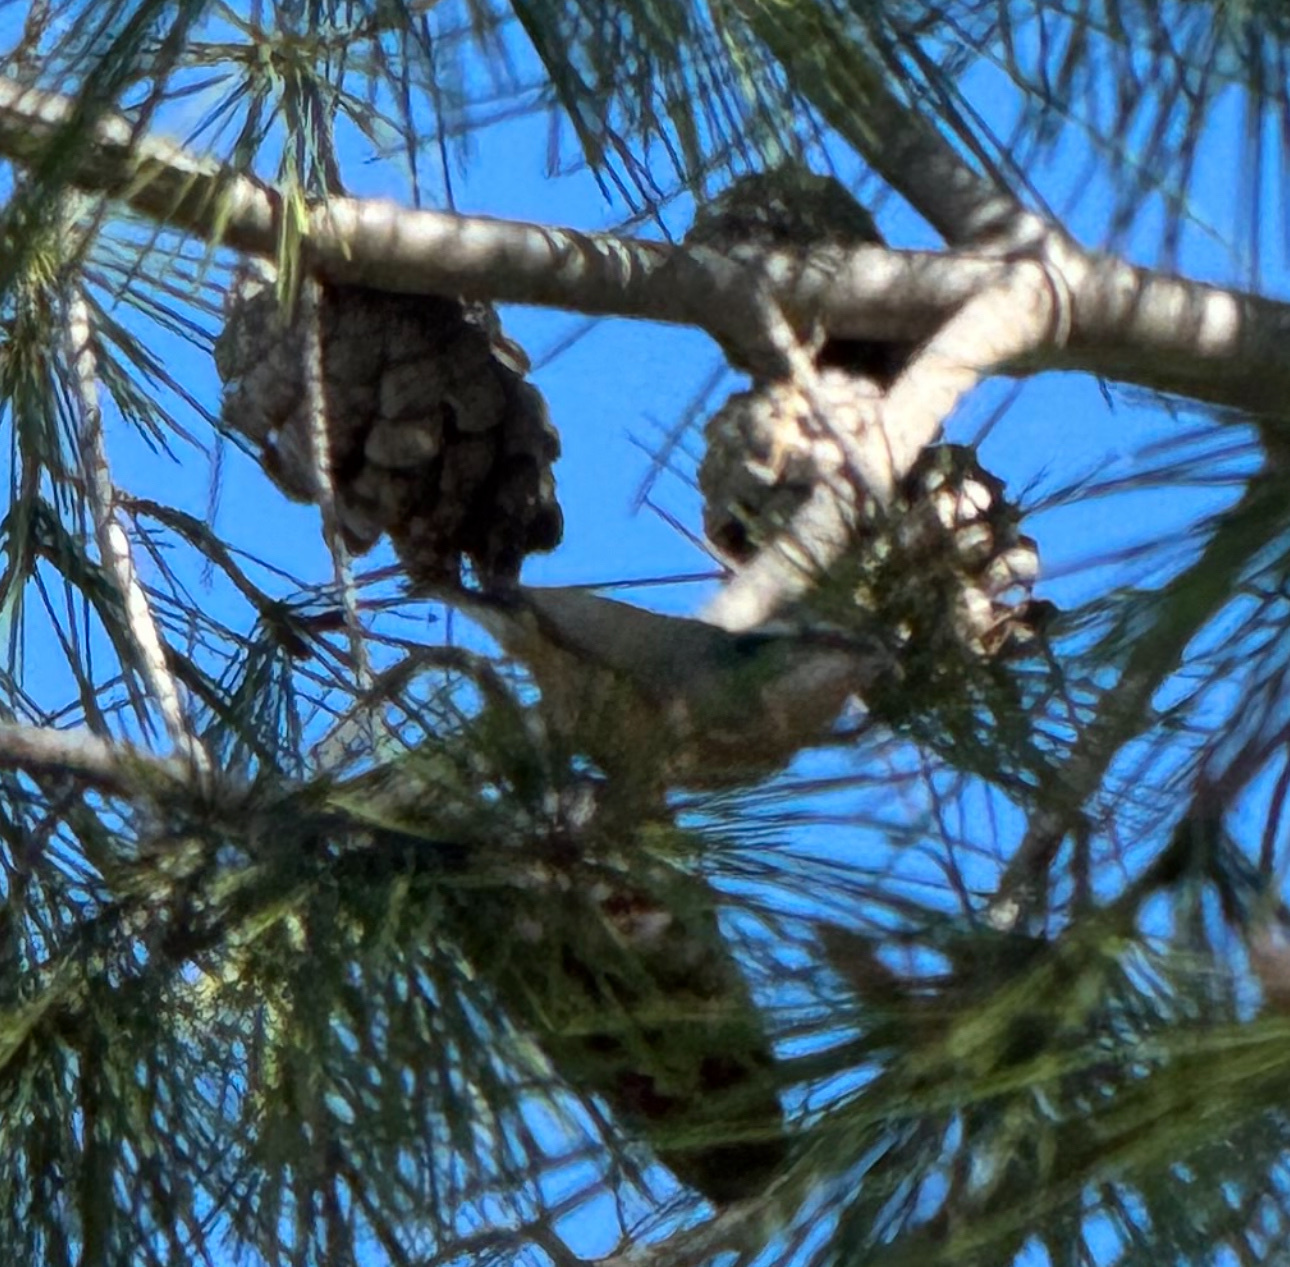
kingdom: Animalia
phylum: Chordata
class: Aves
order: Passeriformes
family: Sittidae
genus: Sitta
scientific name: Sitta canadensis
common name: Red-breasted nuthatch
